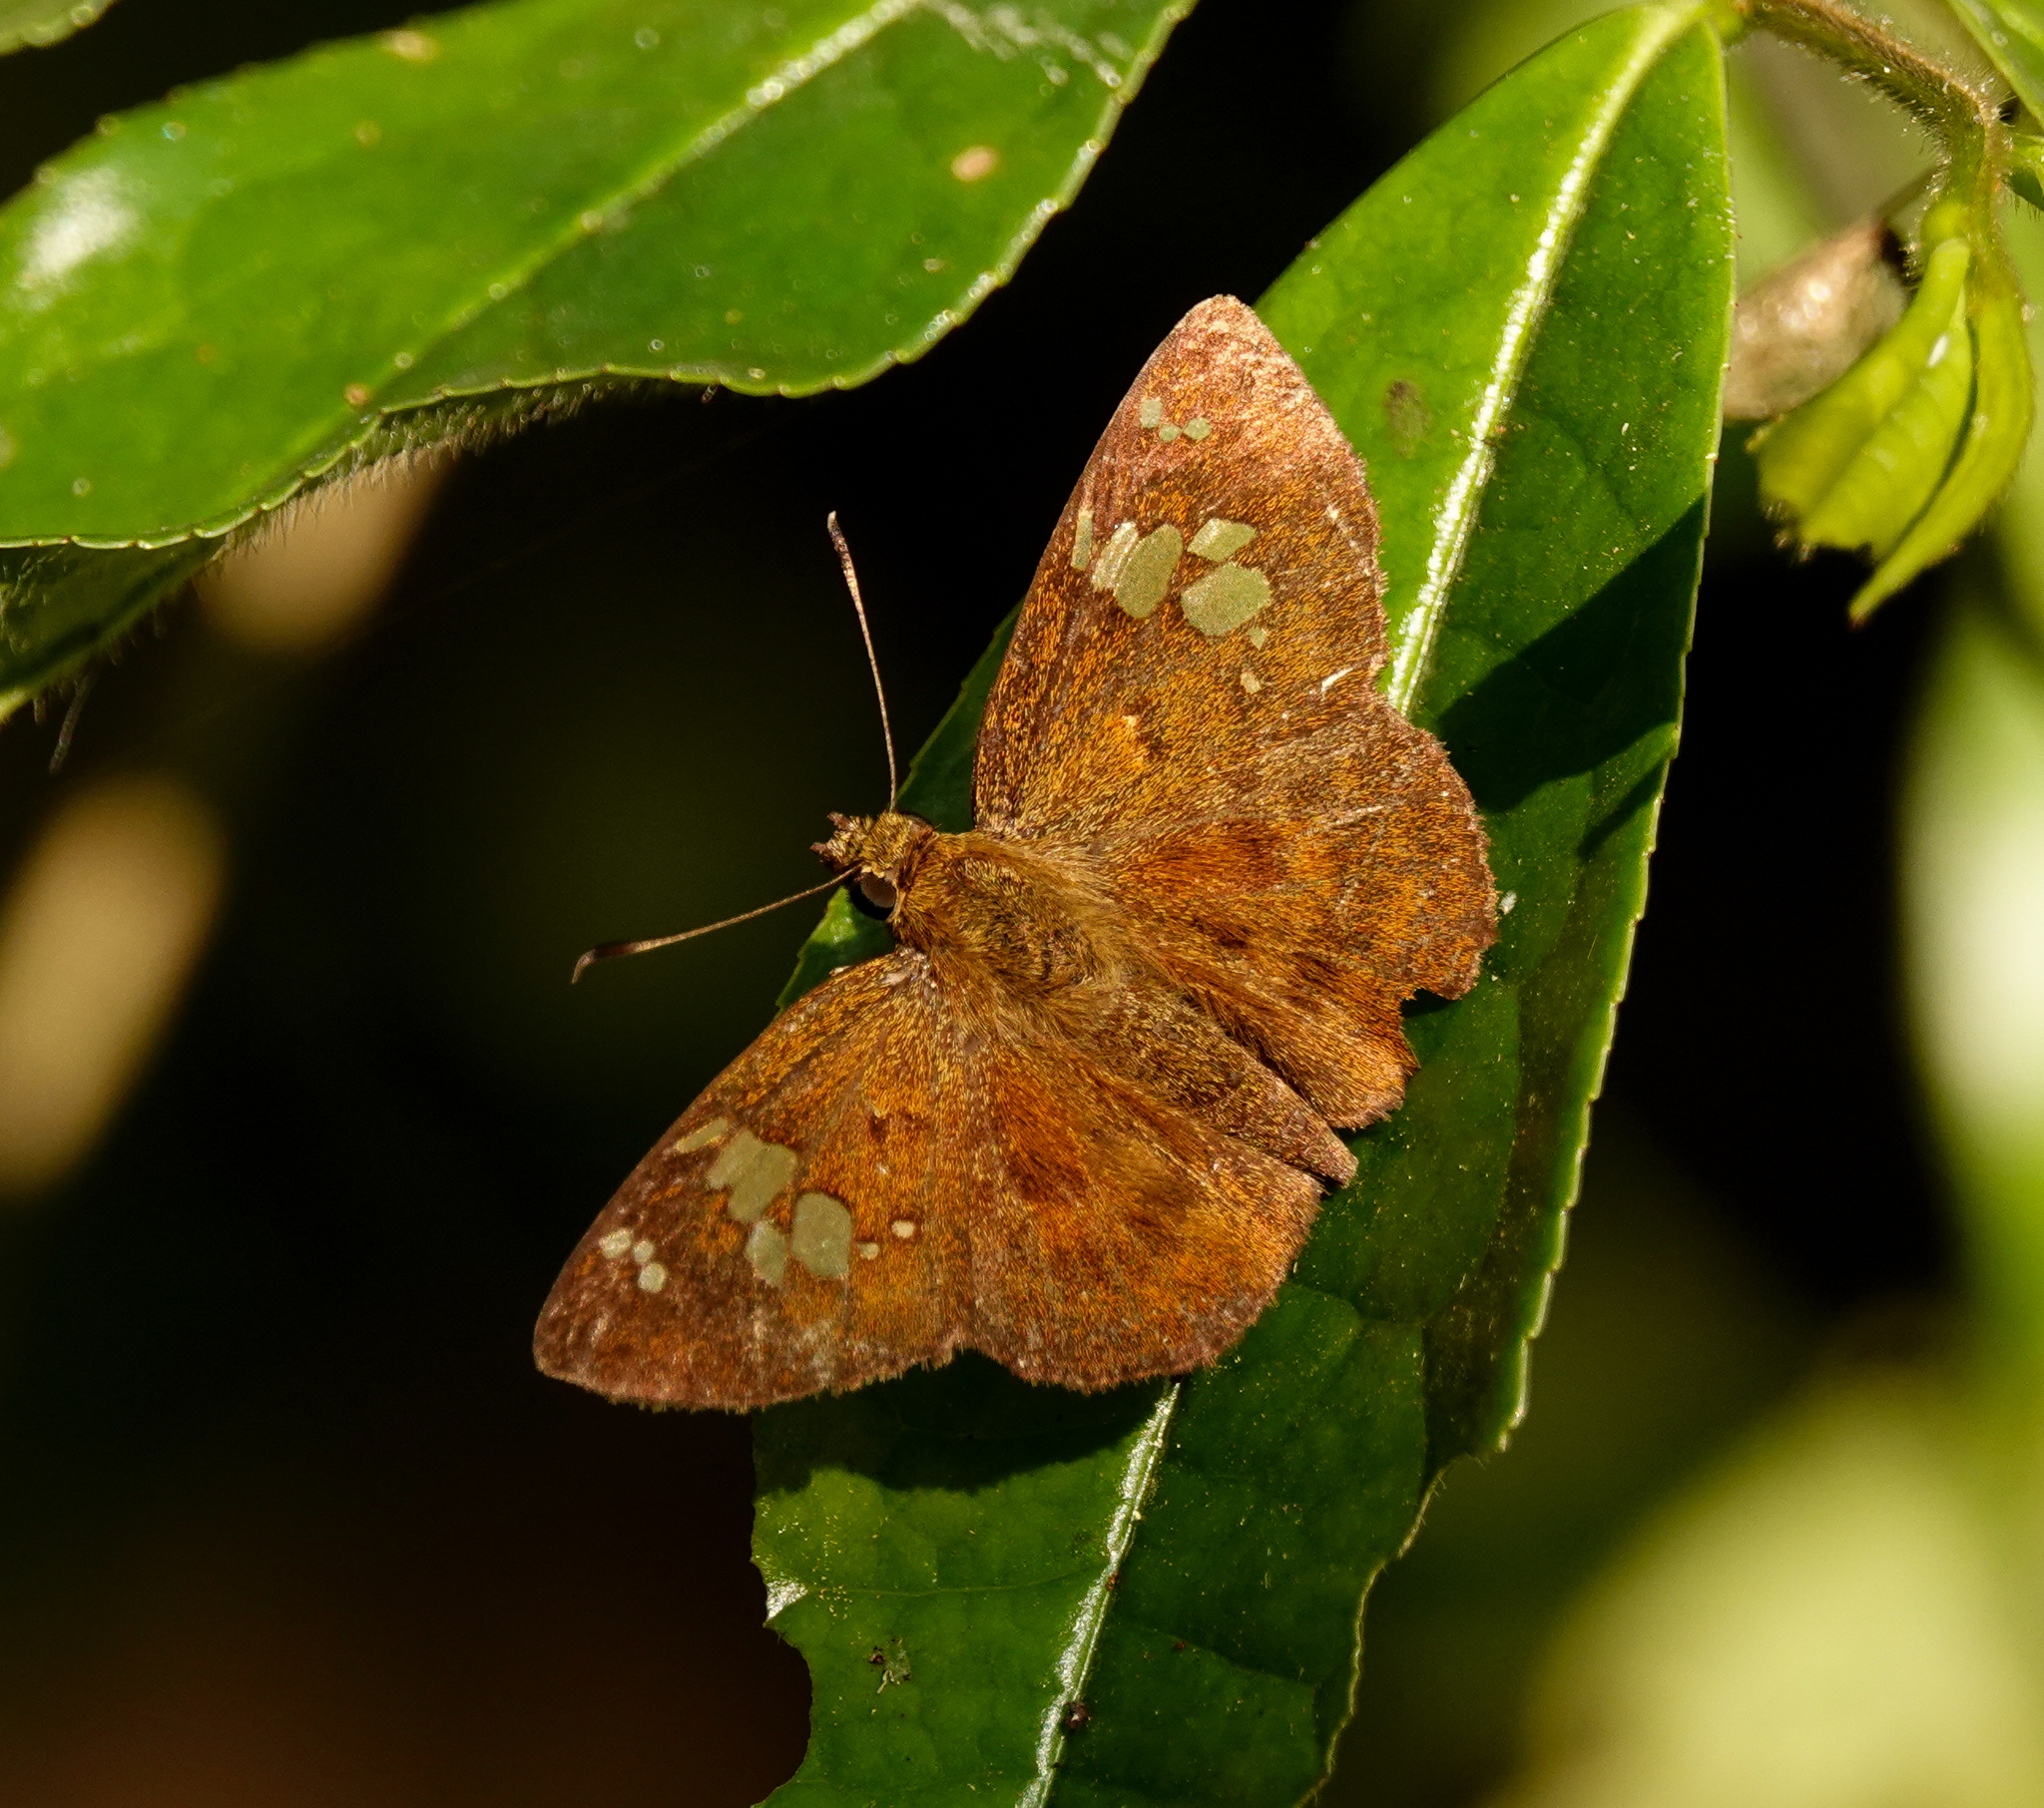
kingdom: Animalia
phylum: Arthropoda
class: Insecta
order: Lepidoptera
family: Hesperiidae
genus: Pseudocoladenia
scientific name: Pseudocoladenia dan
